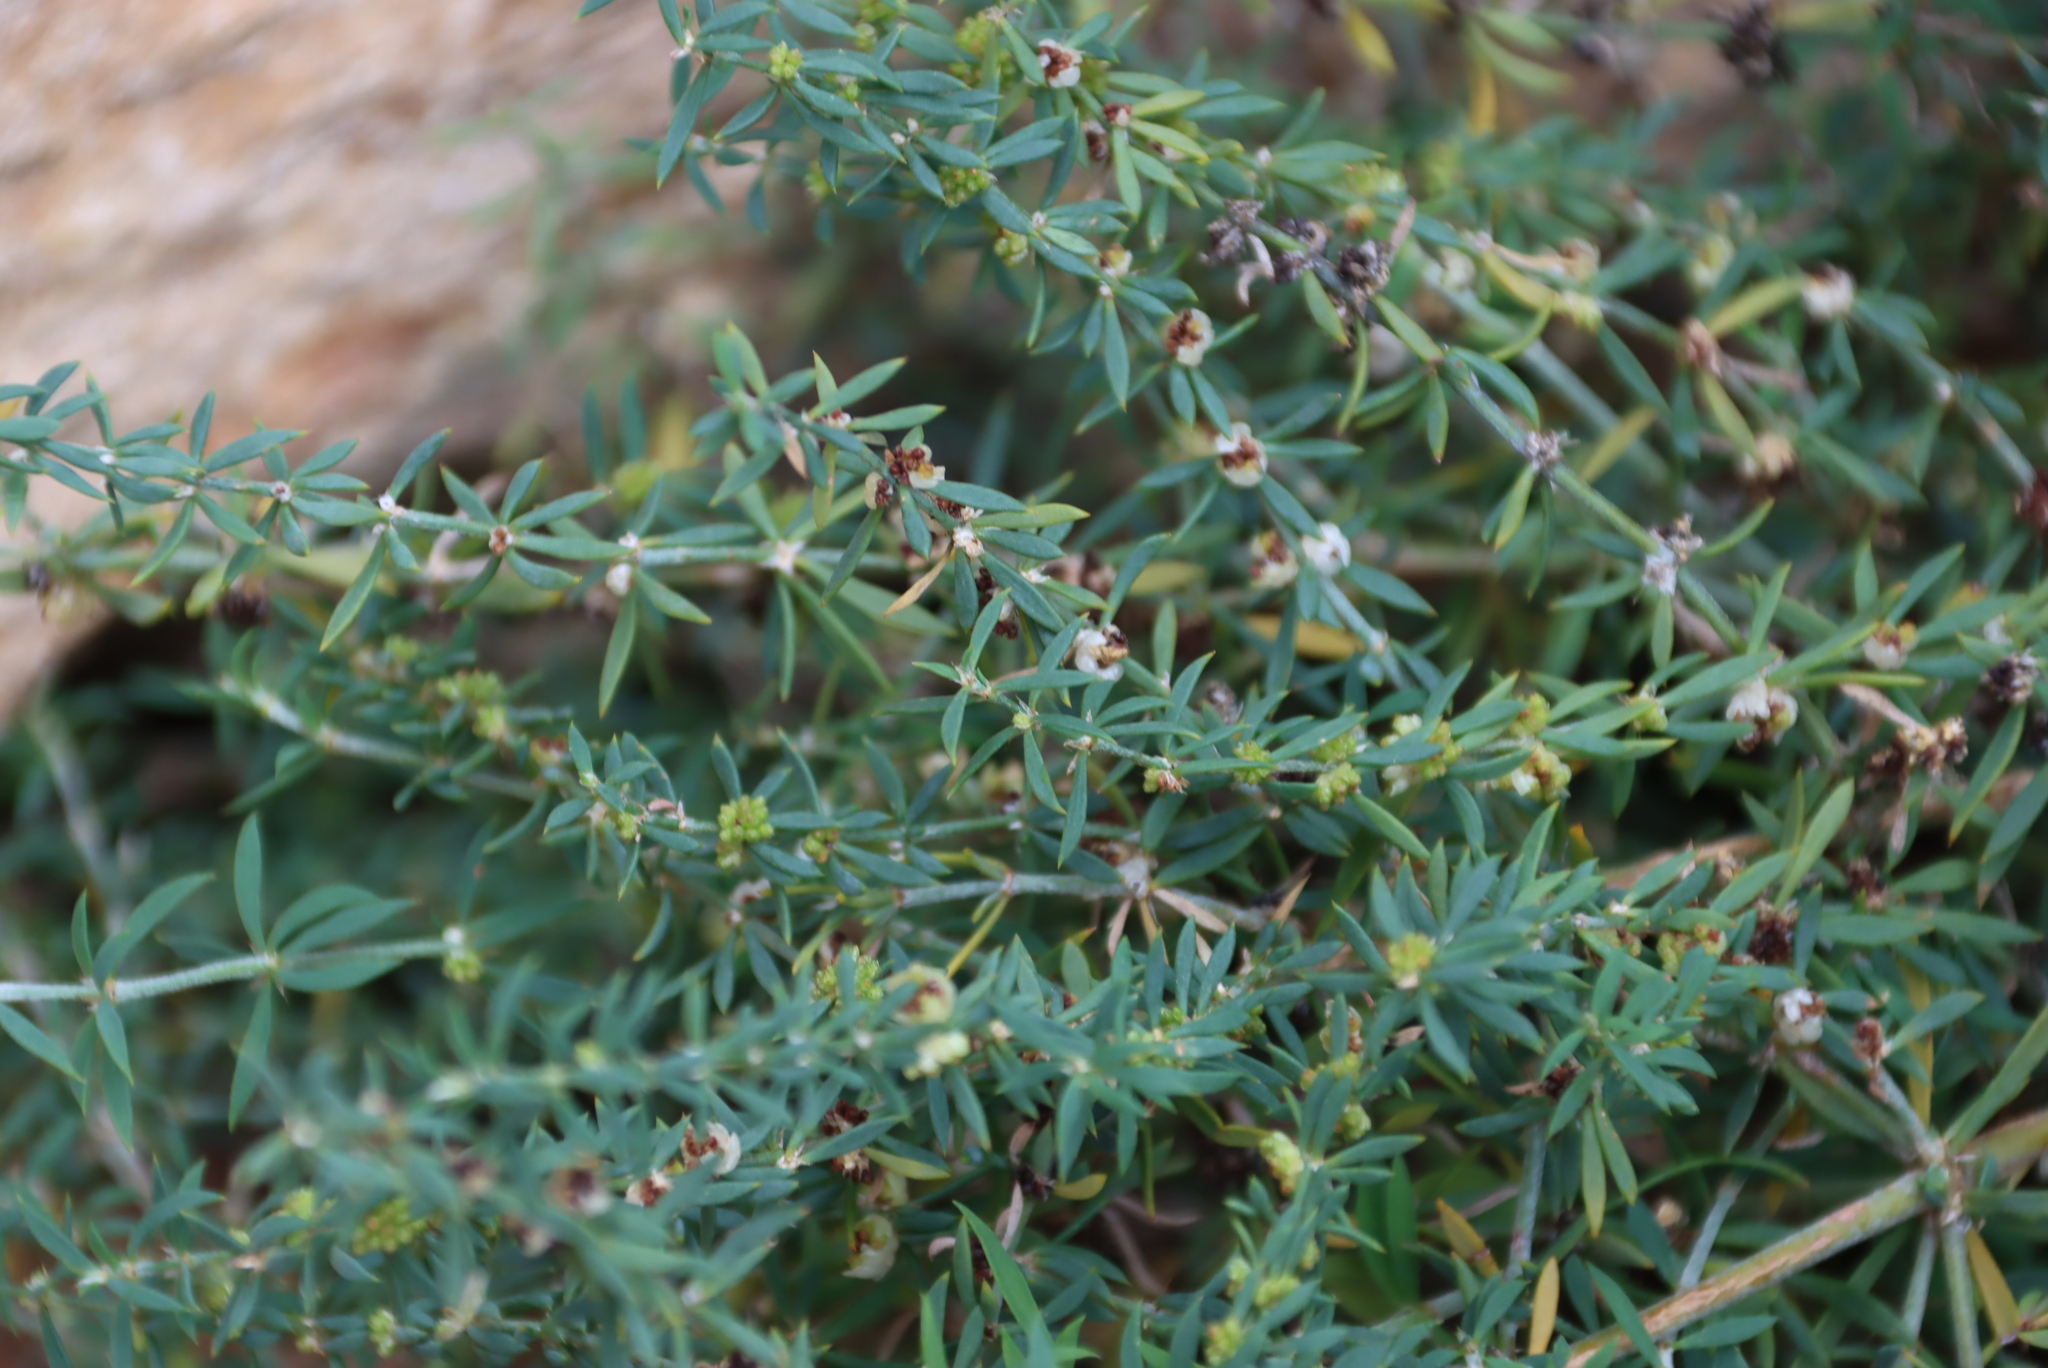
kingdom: Plantae
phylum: Tracheophyta
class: Magnoliopsida
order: Caryophyllales
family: Caryophyllaceae
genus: Pollichia
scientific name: Pollichia campestris
